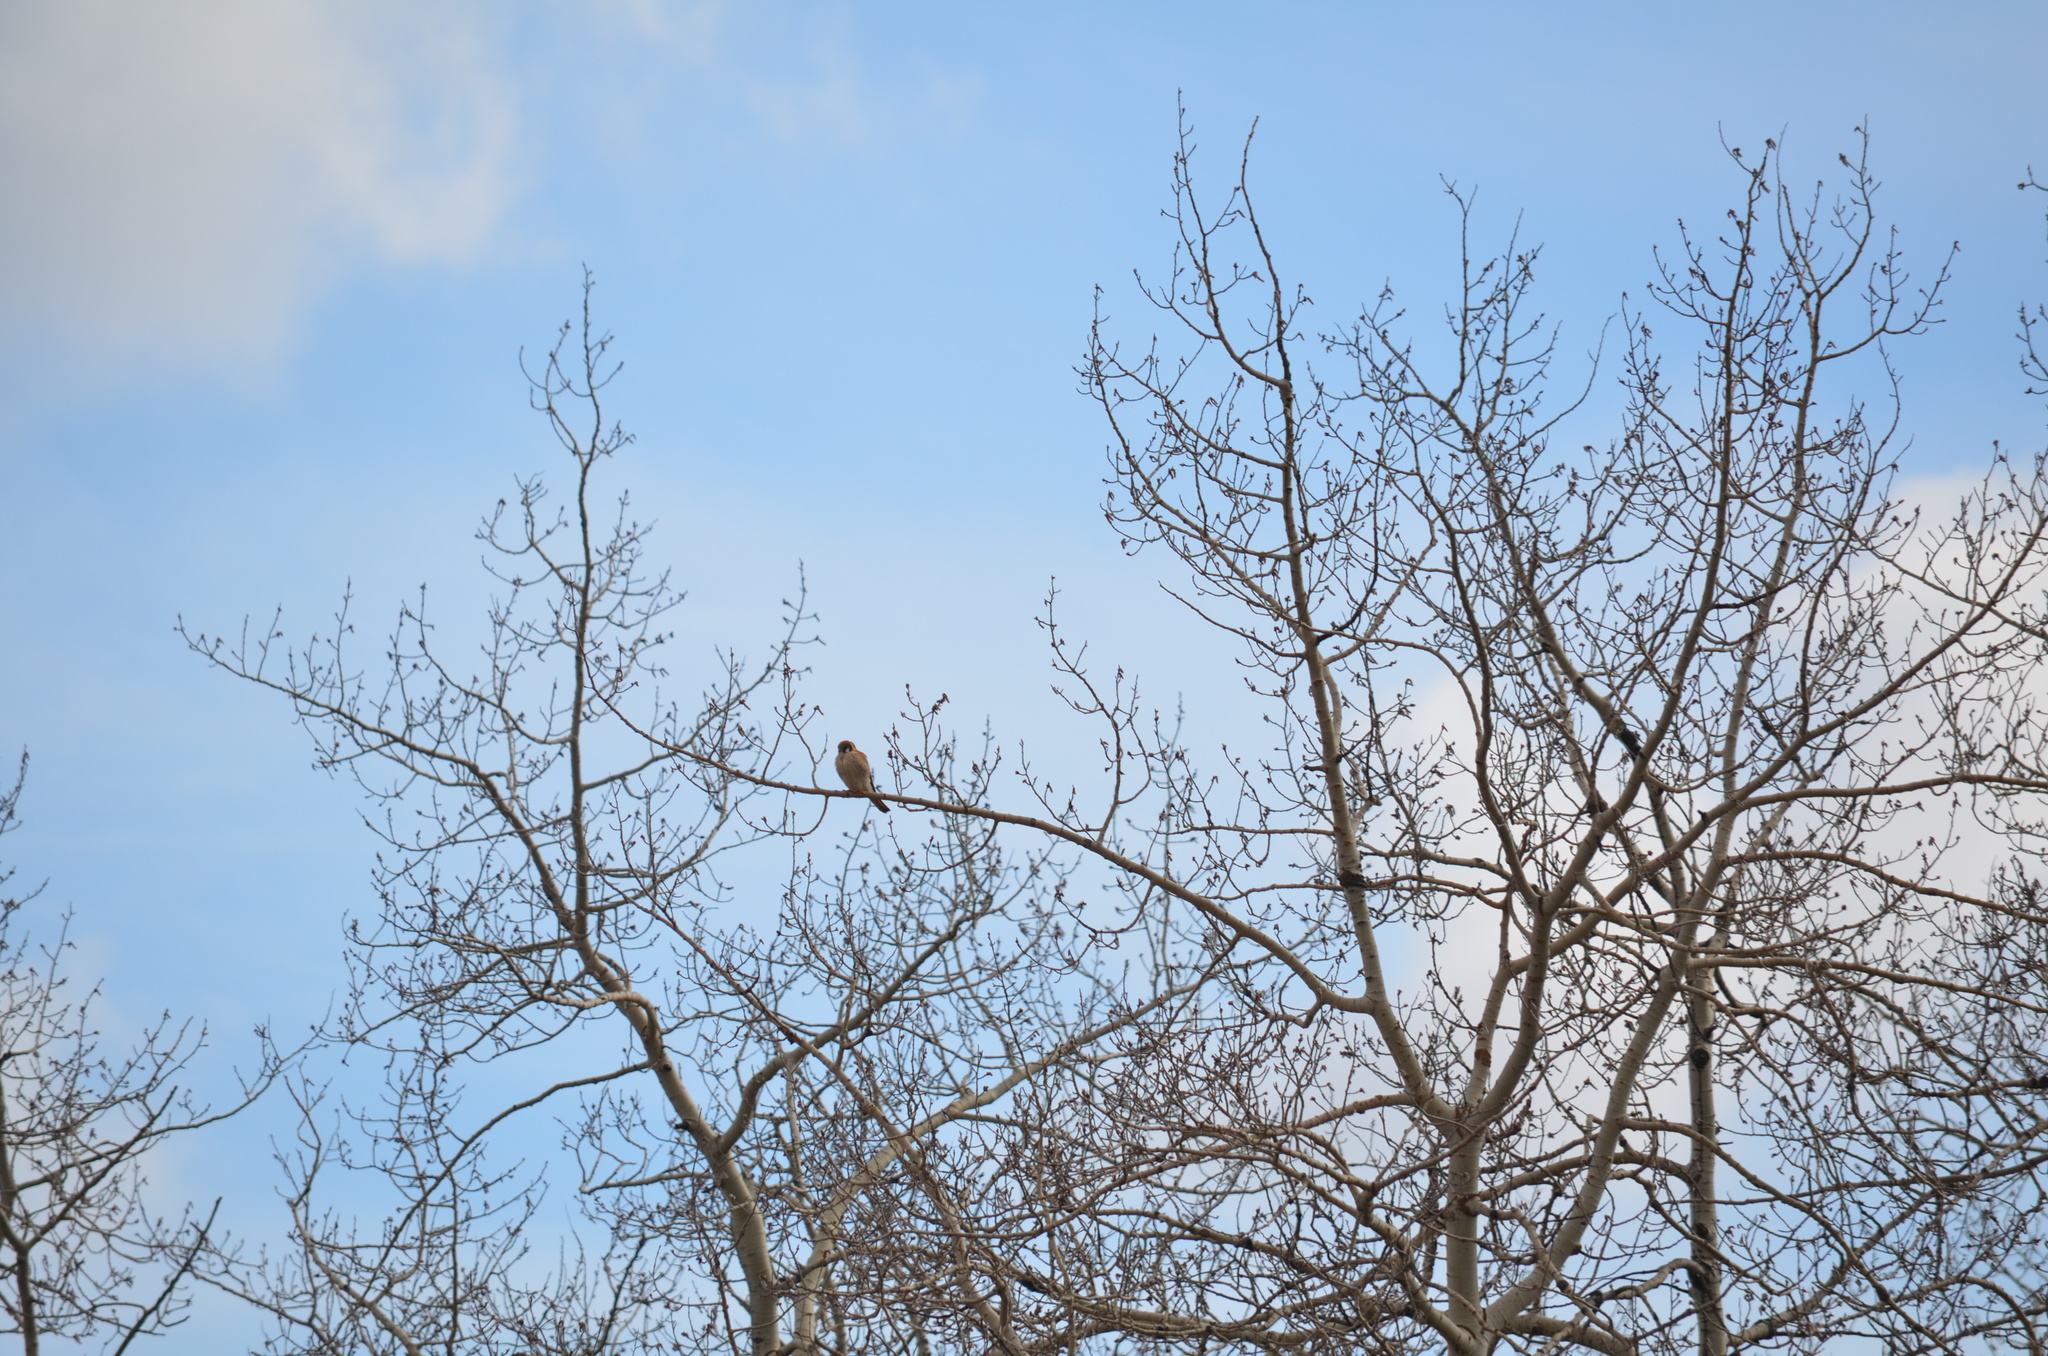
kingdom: Animalia
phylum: Chordata
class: Aves
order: Falconiformes
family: Falconidae
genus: Falco
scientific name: Falco sparverius
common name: American kestrel
